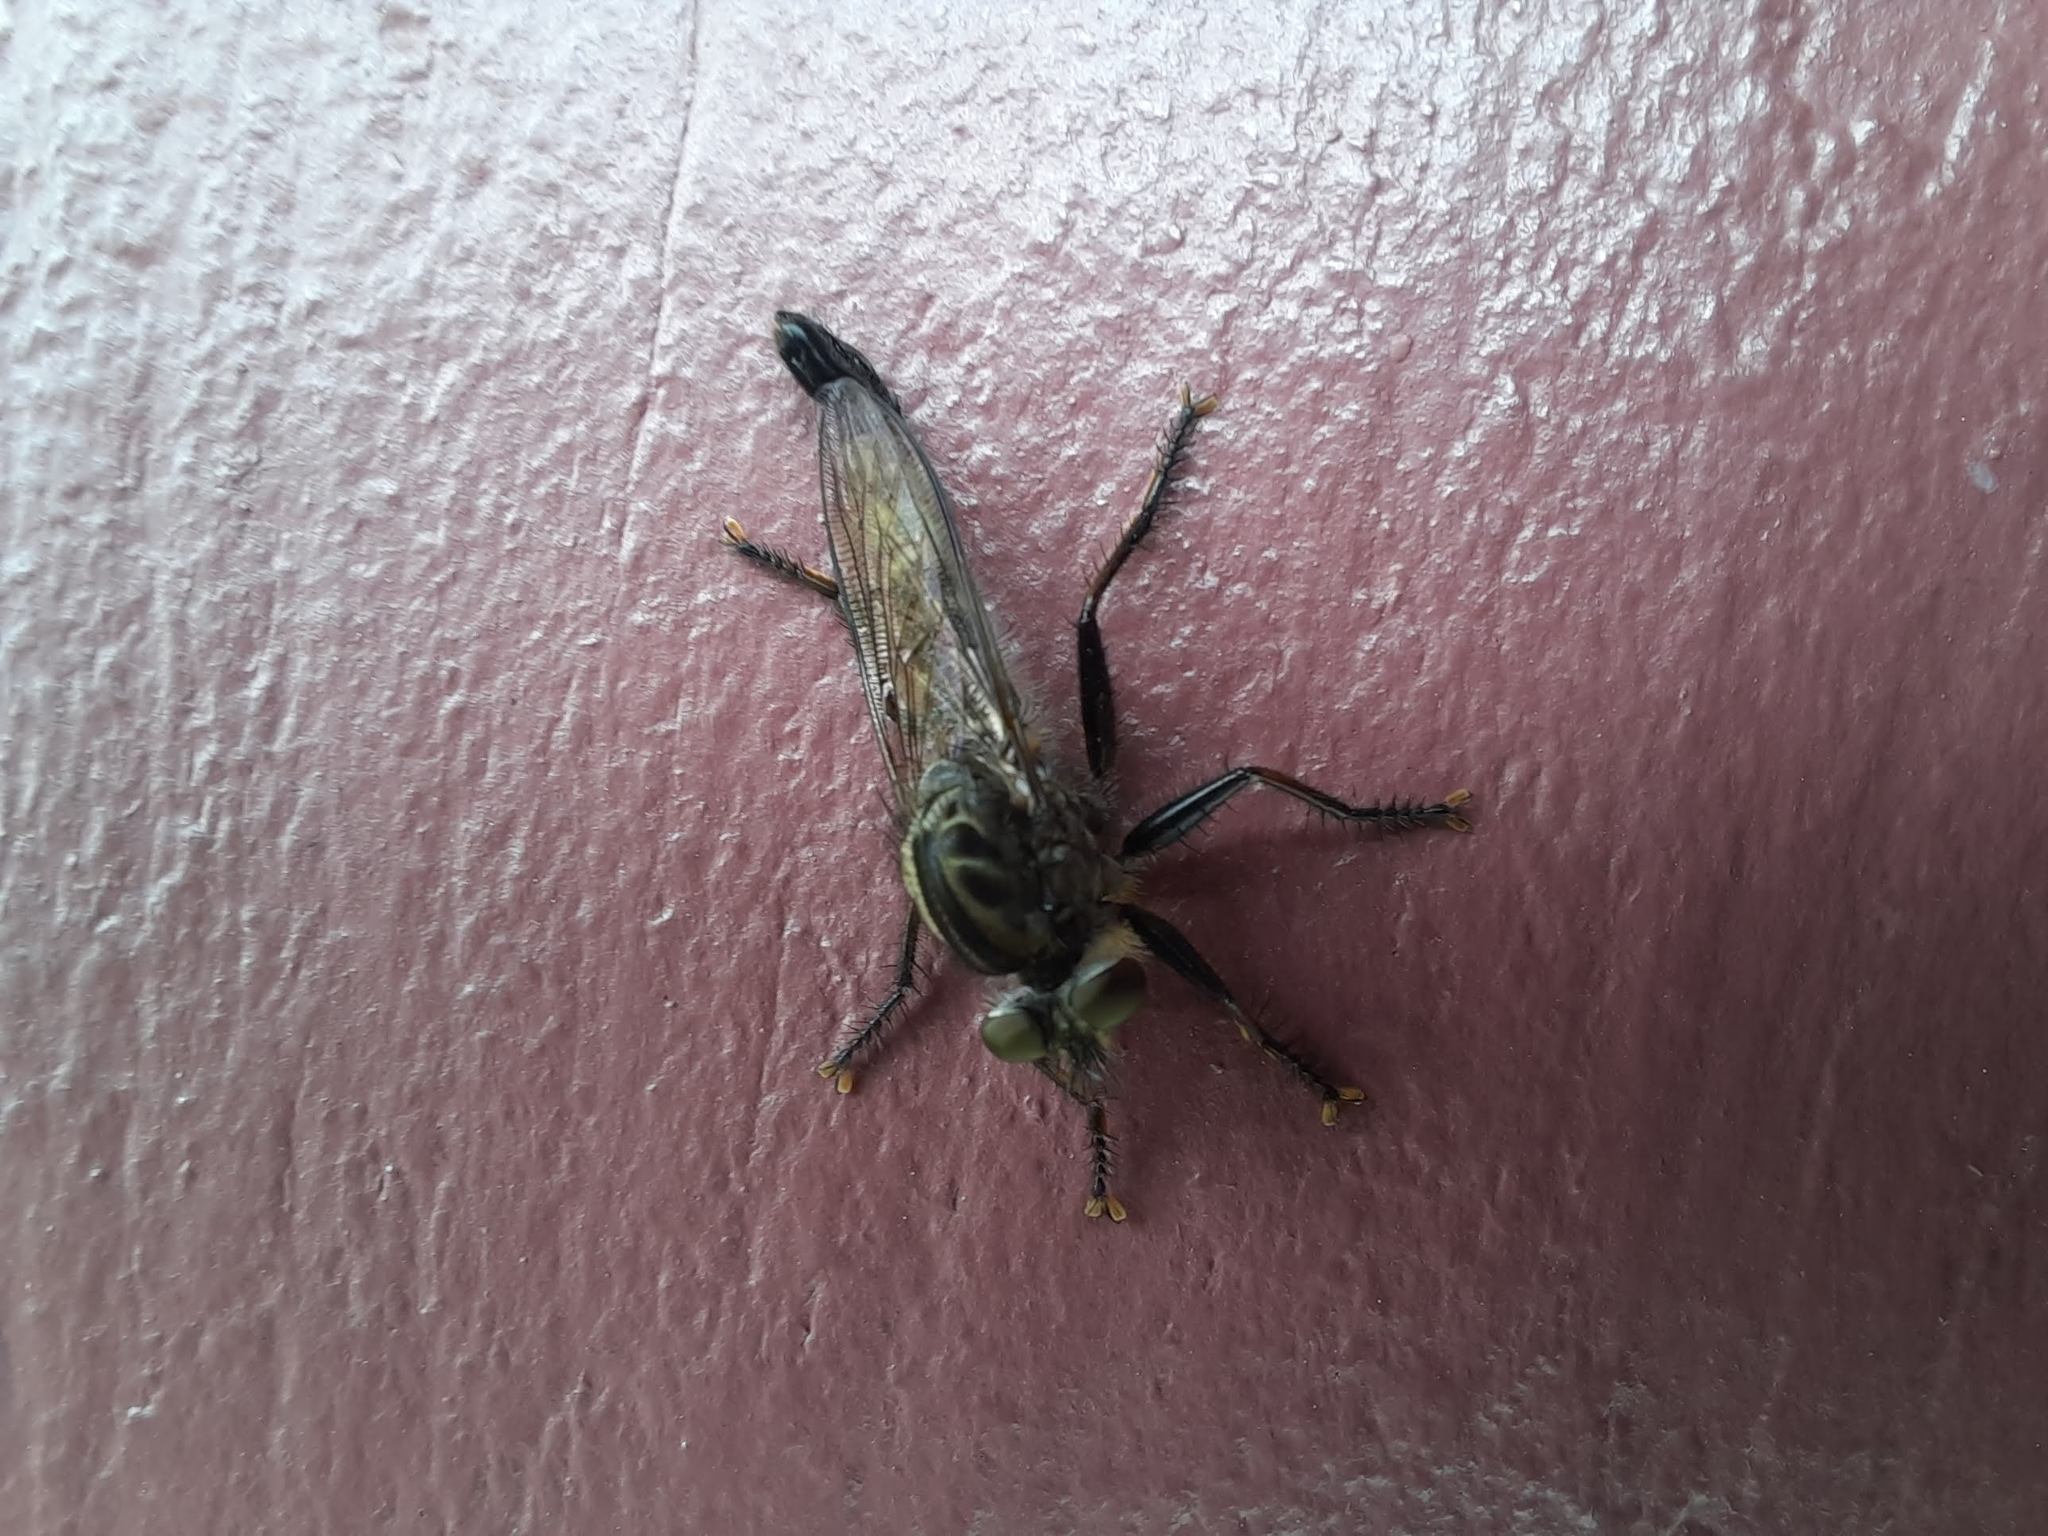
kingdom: Animalia
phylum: Arthropoda
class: Insecta
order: Diptera
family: Asilidae
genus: Efferia
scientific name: Efferia aestuans
